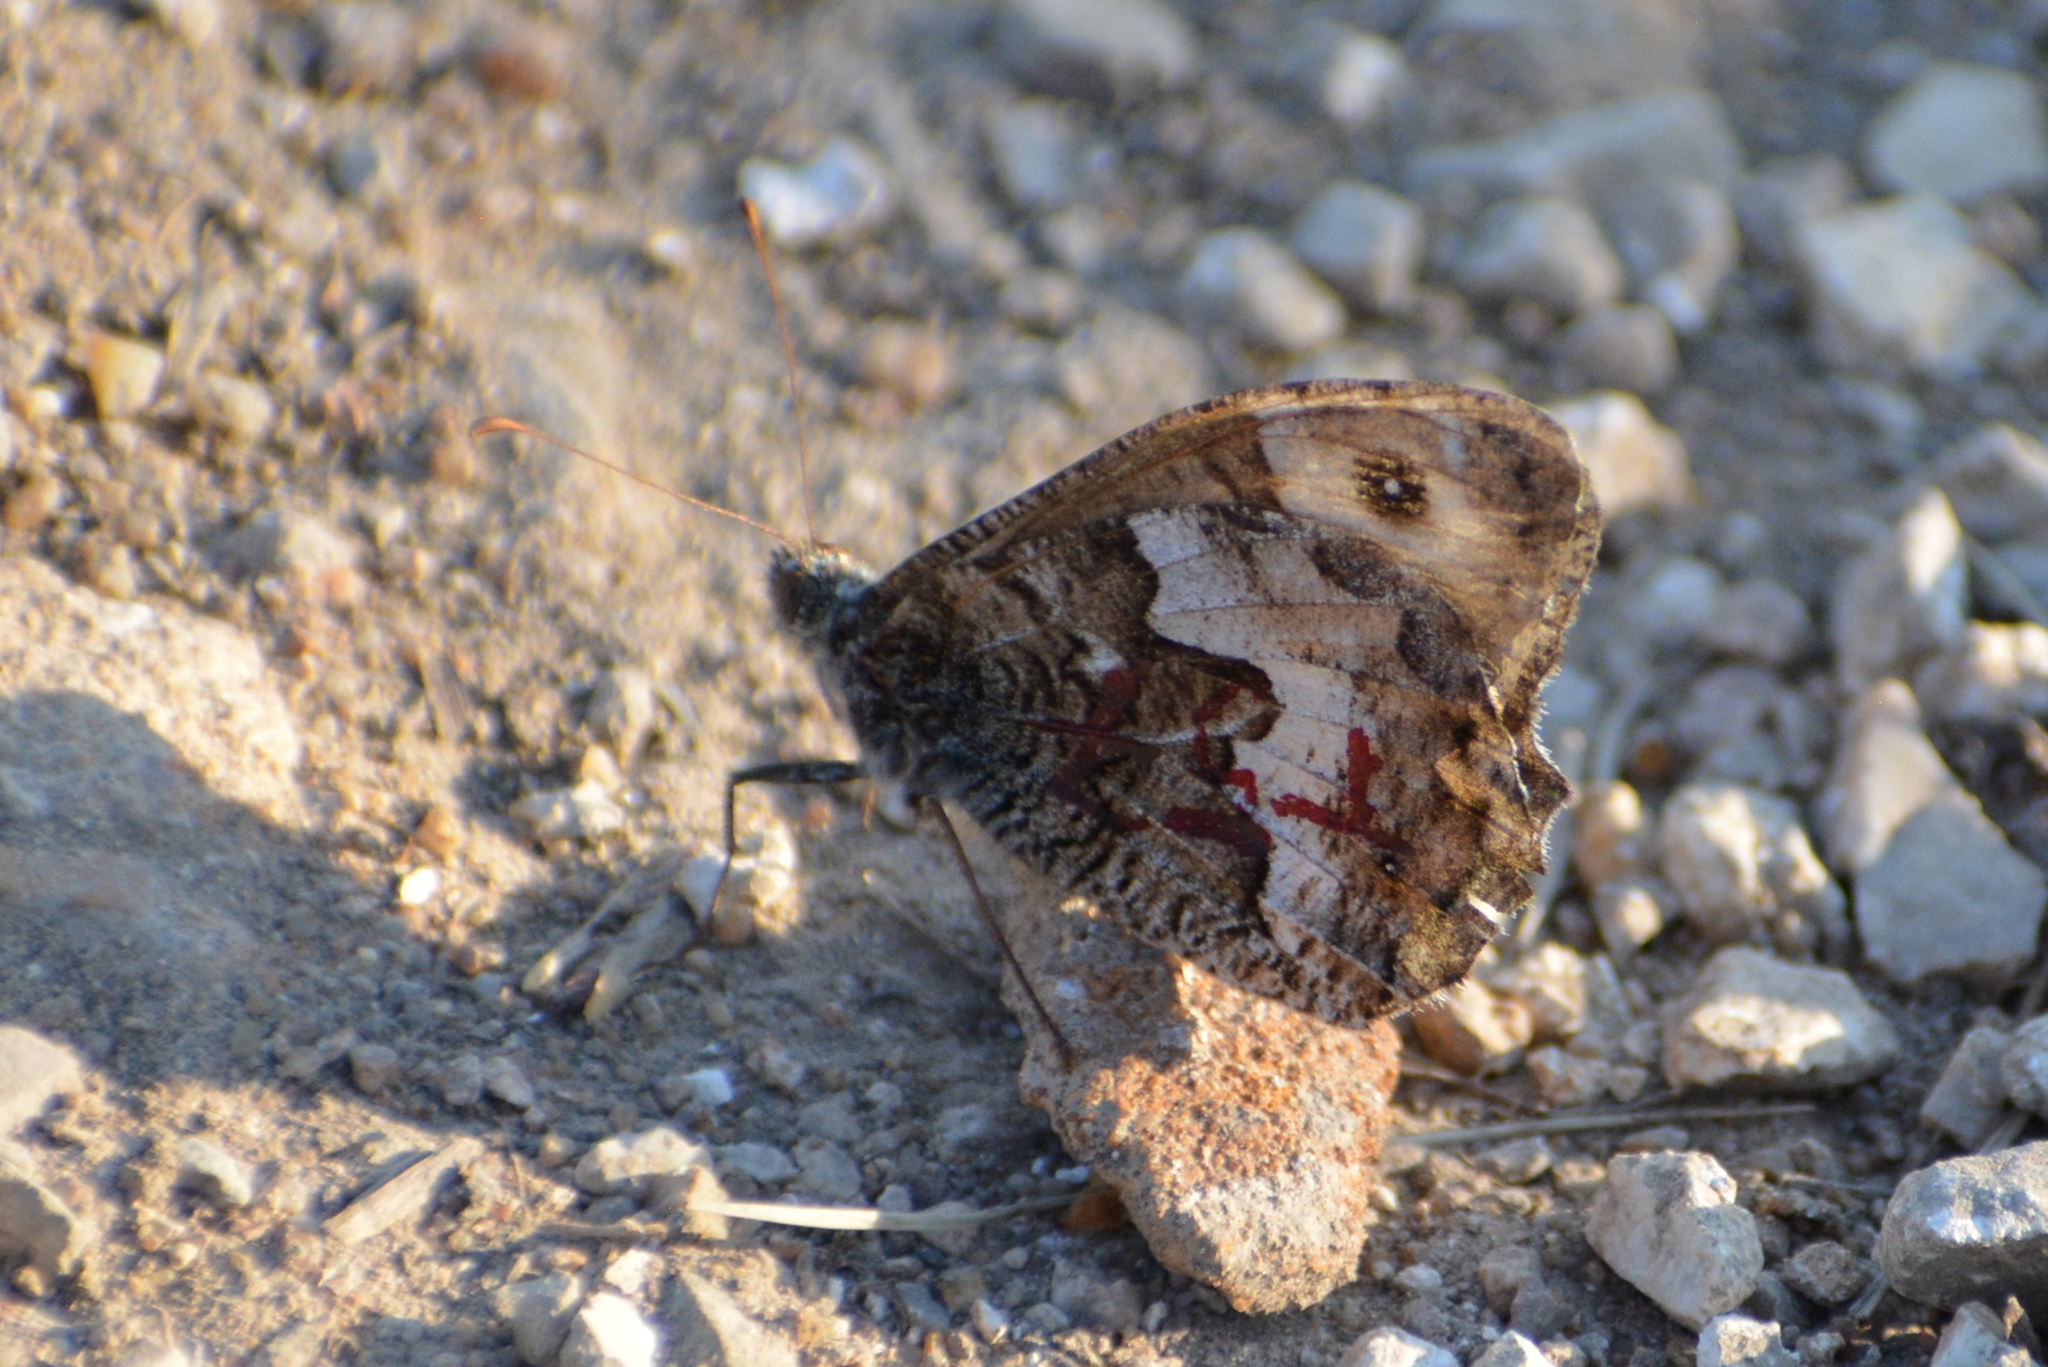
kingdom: Animalia
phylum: Arthropoda
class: Insecta
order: Lepidoptera
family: Nymphalidae
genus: Hipparchia
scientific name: Hipparchia semele
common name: Grayling
